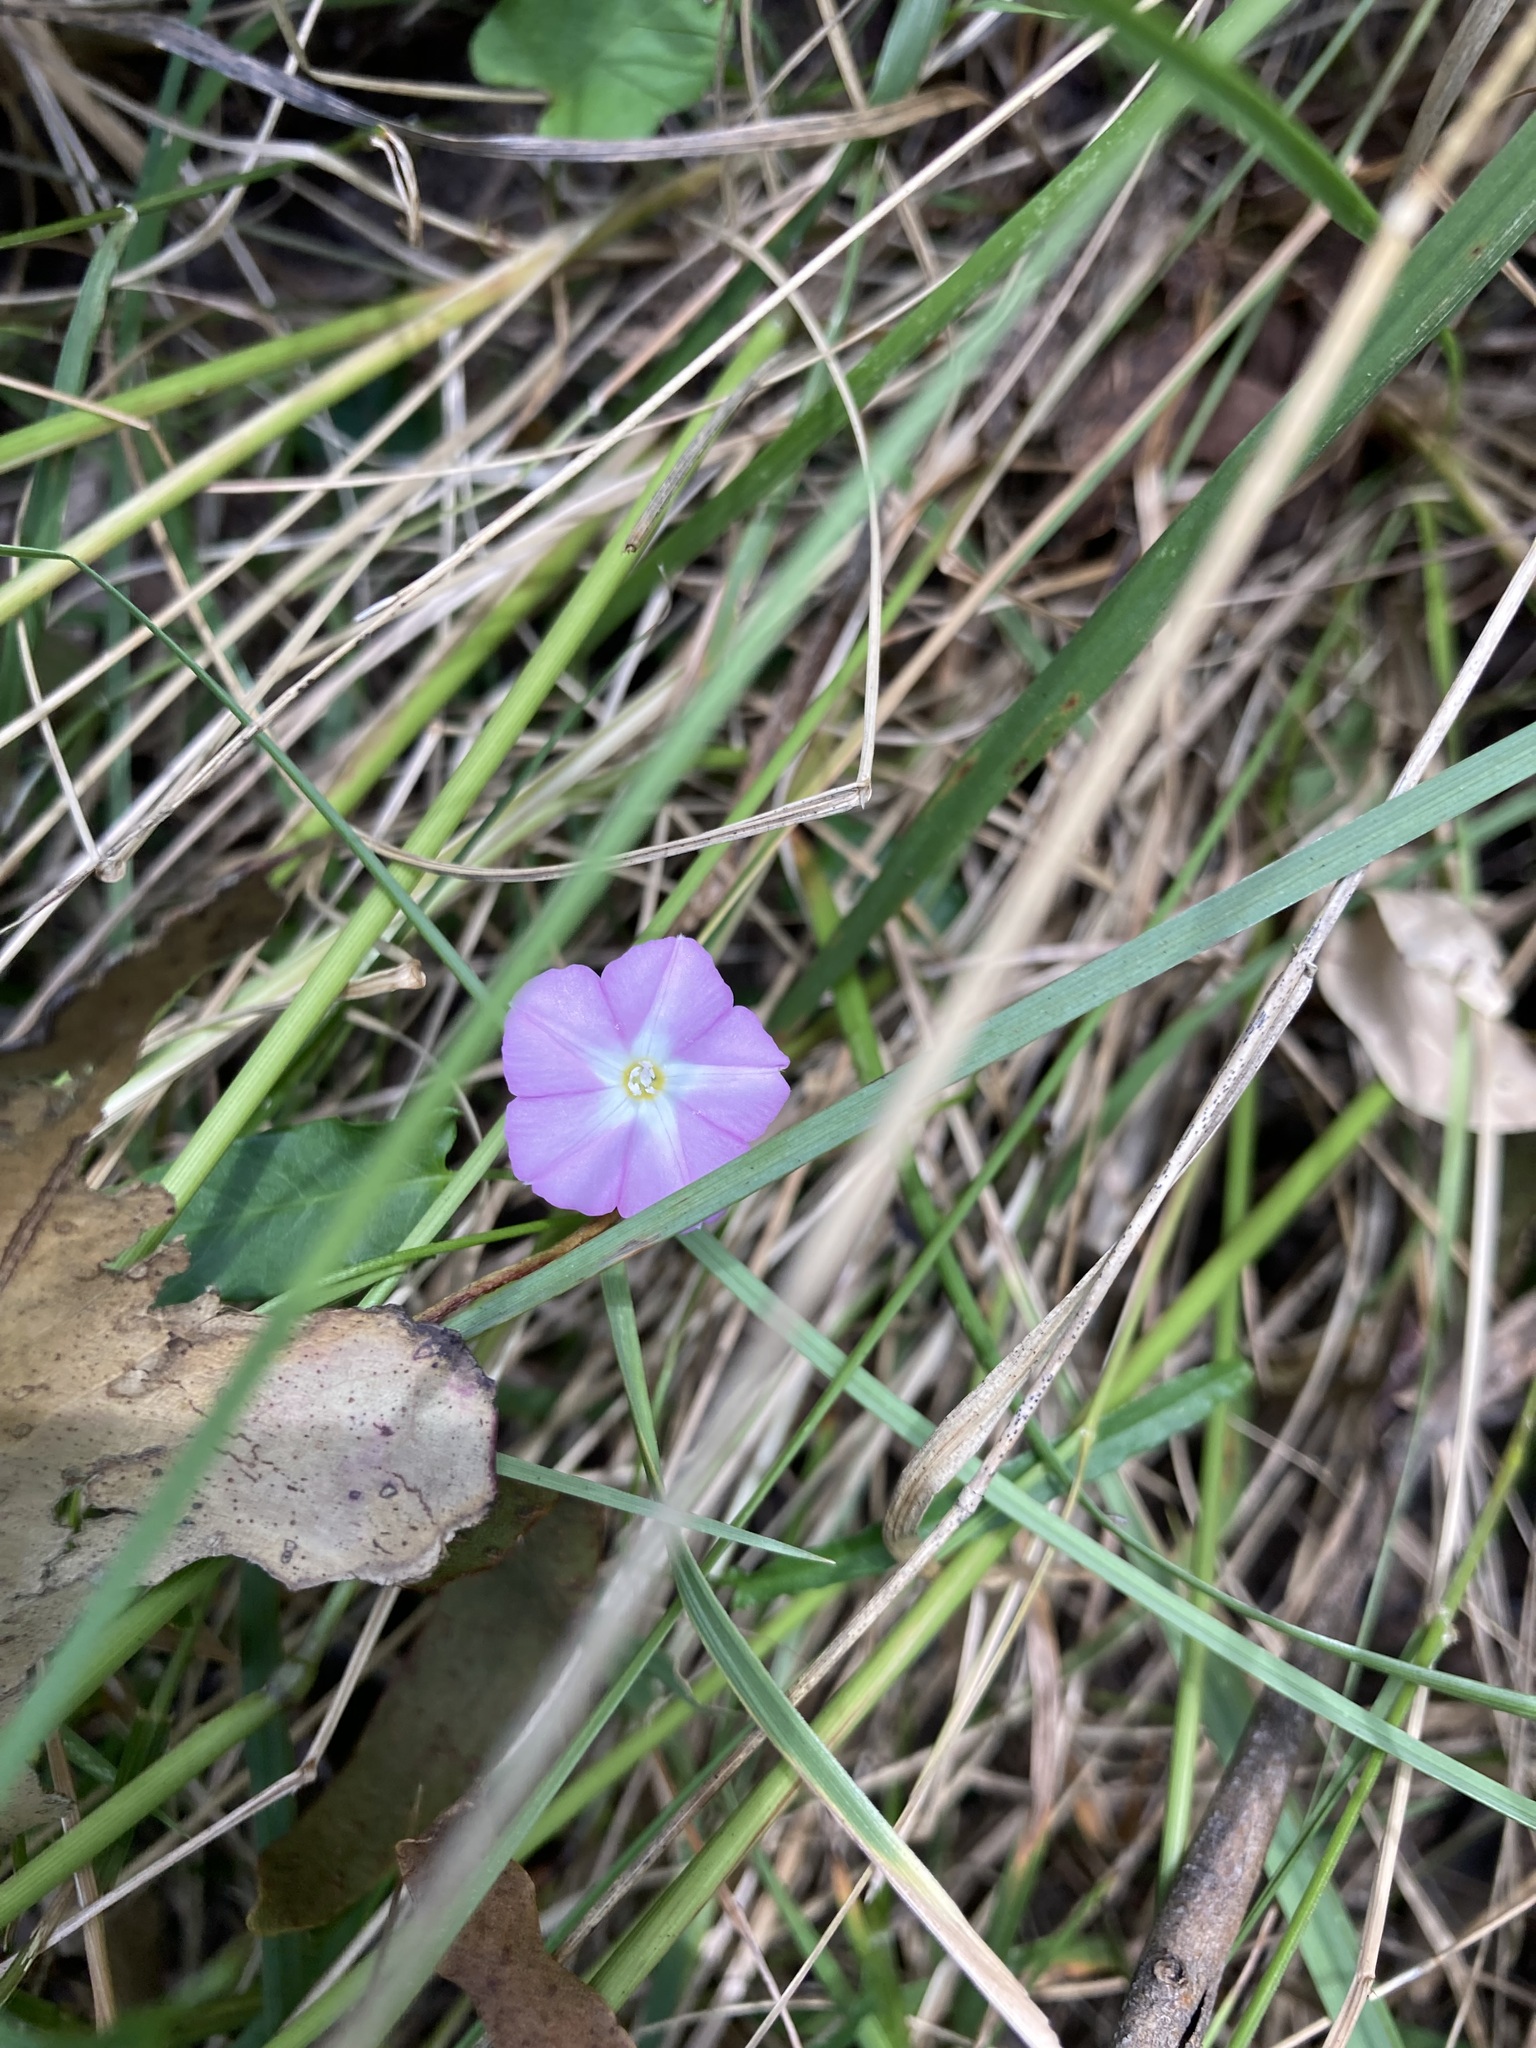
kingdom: Plantae
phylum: Tracheophyta
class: Magnoliopsida
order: Solanales
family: Convolvulaceae
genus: Polymeria
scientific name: Polymeria calycina
